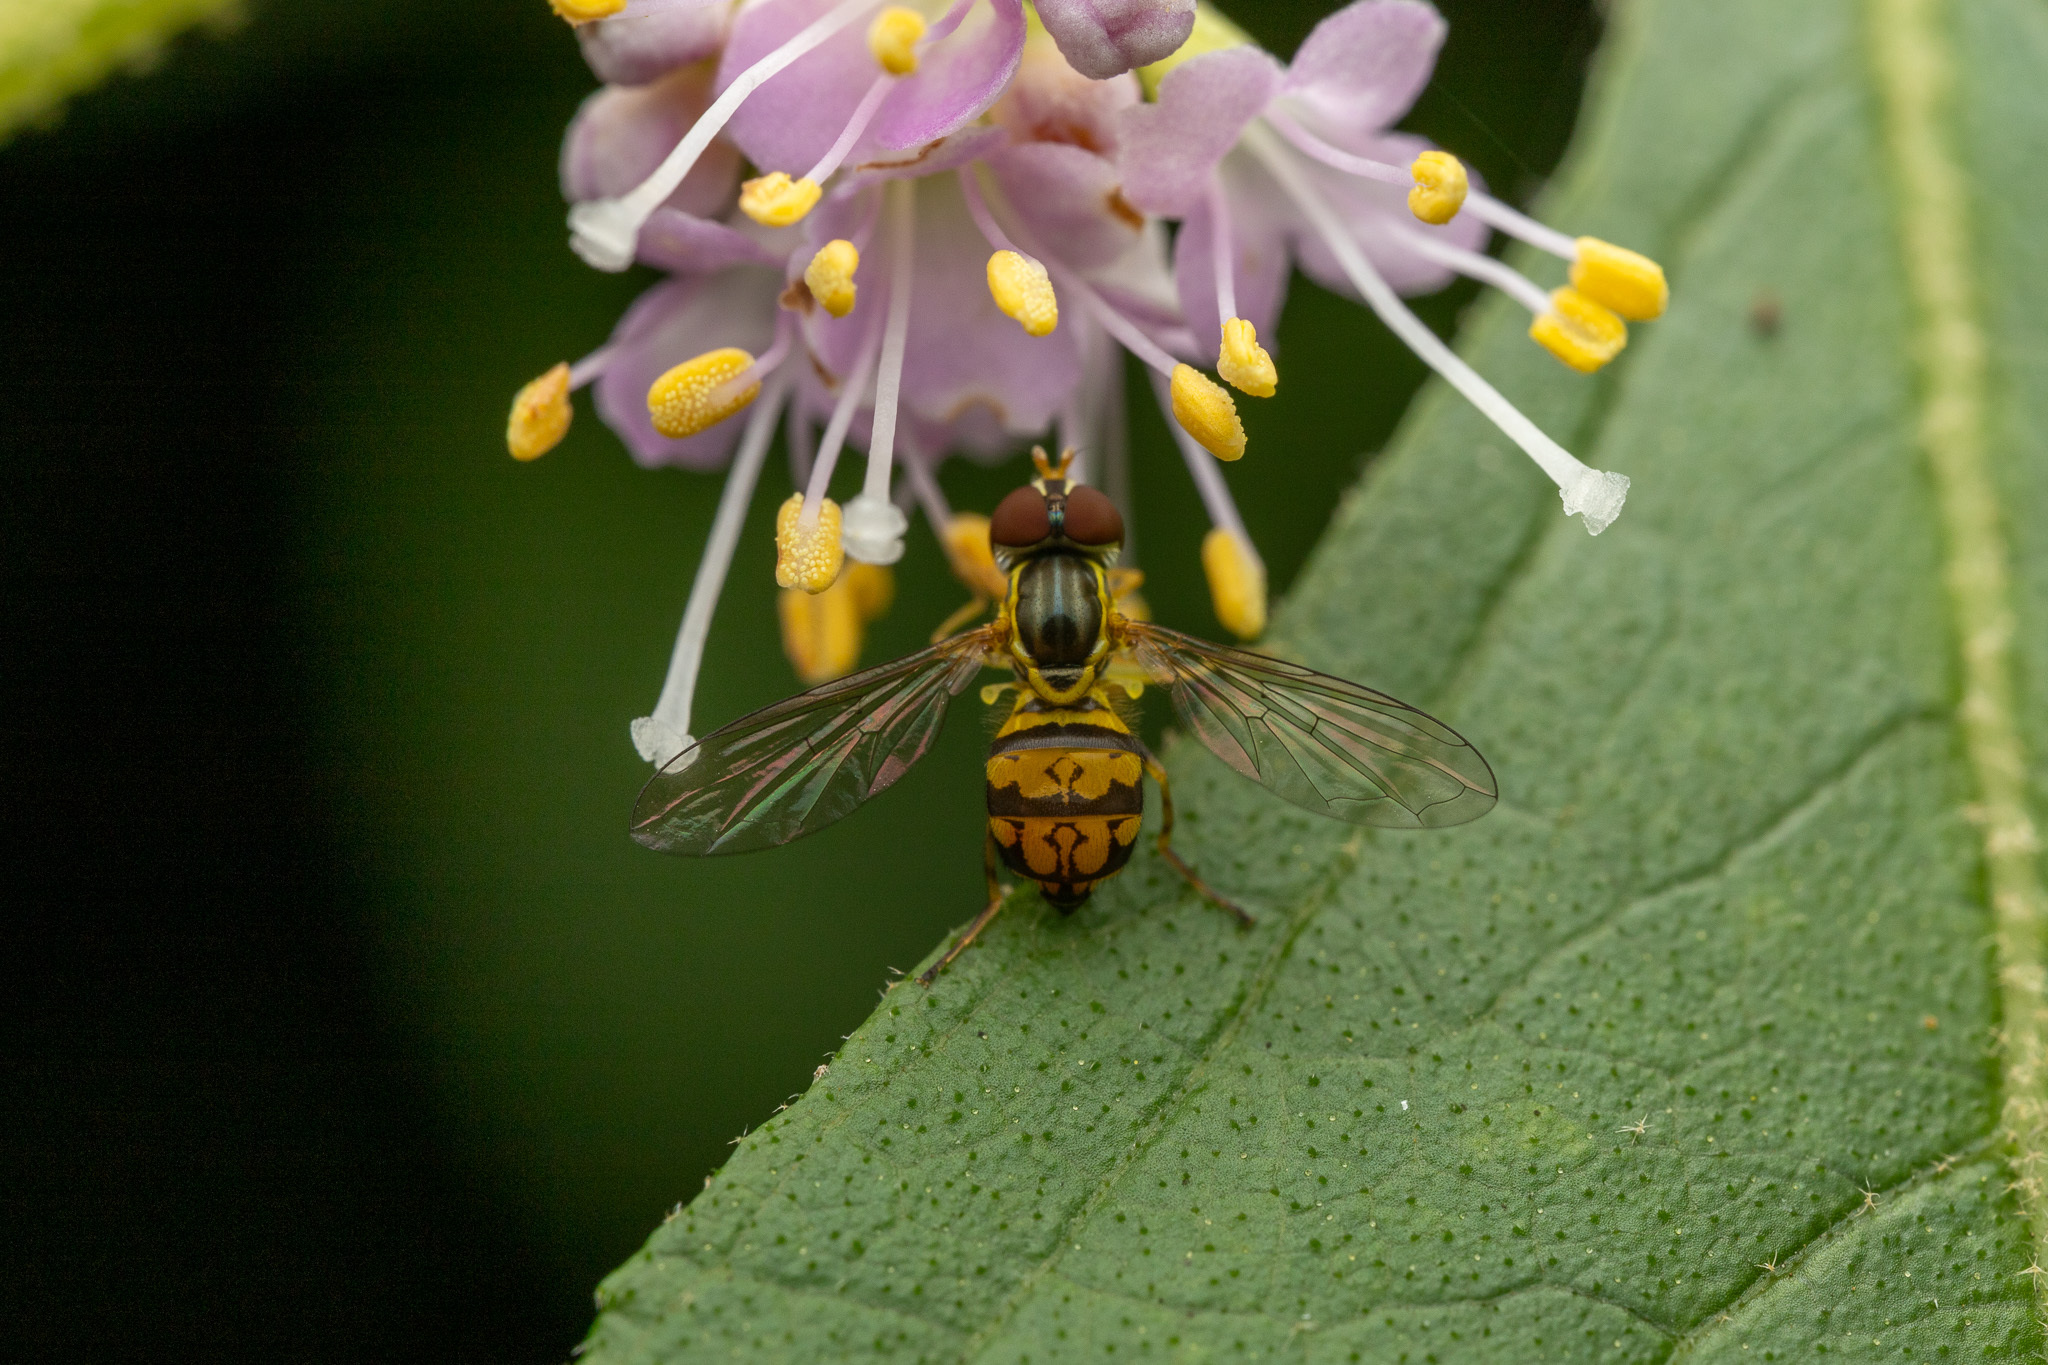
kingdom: Animalia
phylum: Arthropoda
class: Insecta
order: Diptera
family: Syrphidae
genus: Toxomerus
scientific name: Toxomerus geminatus
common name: Eastern calligrapher
